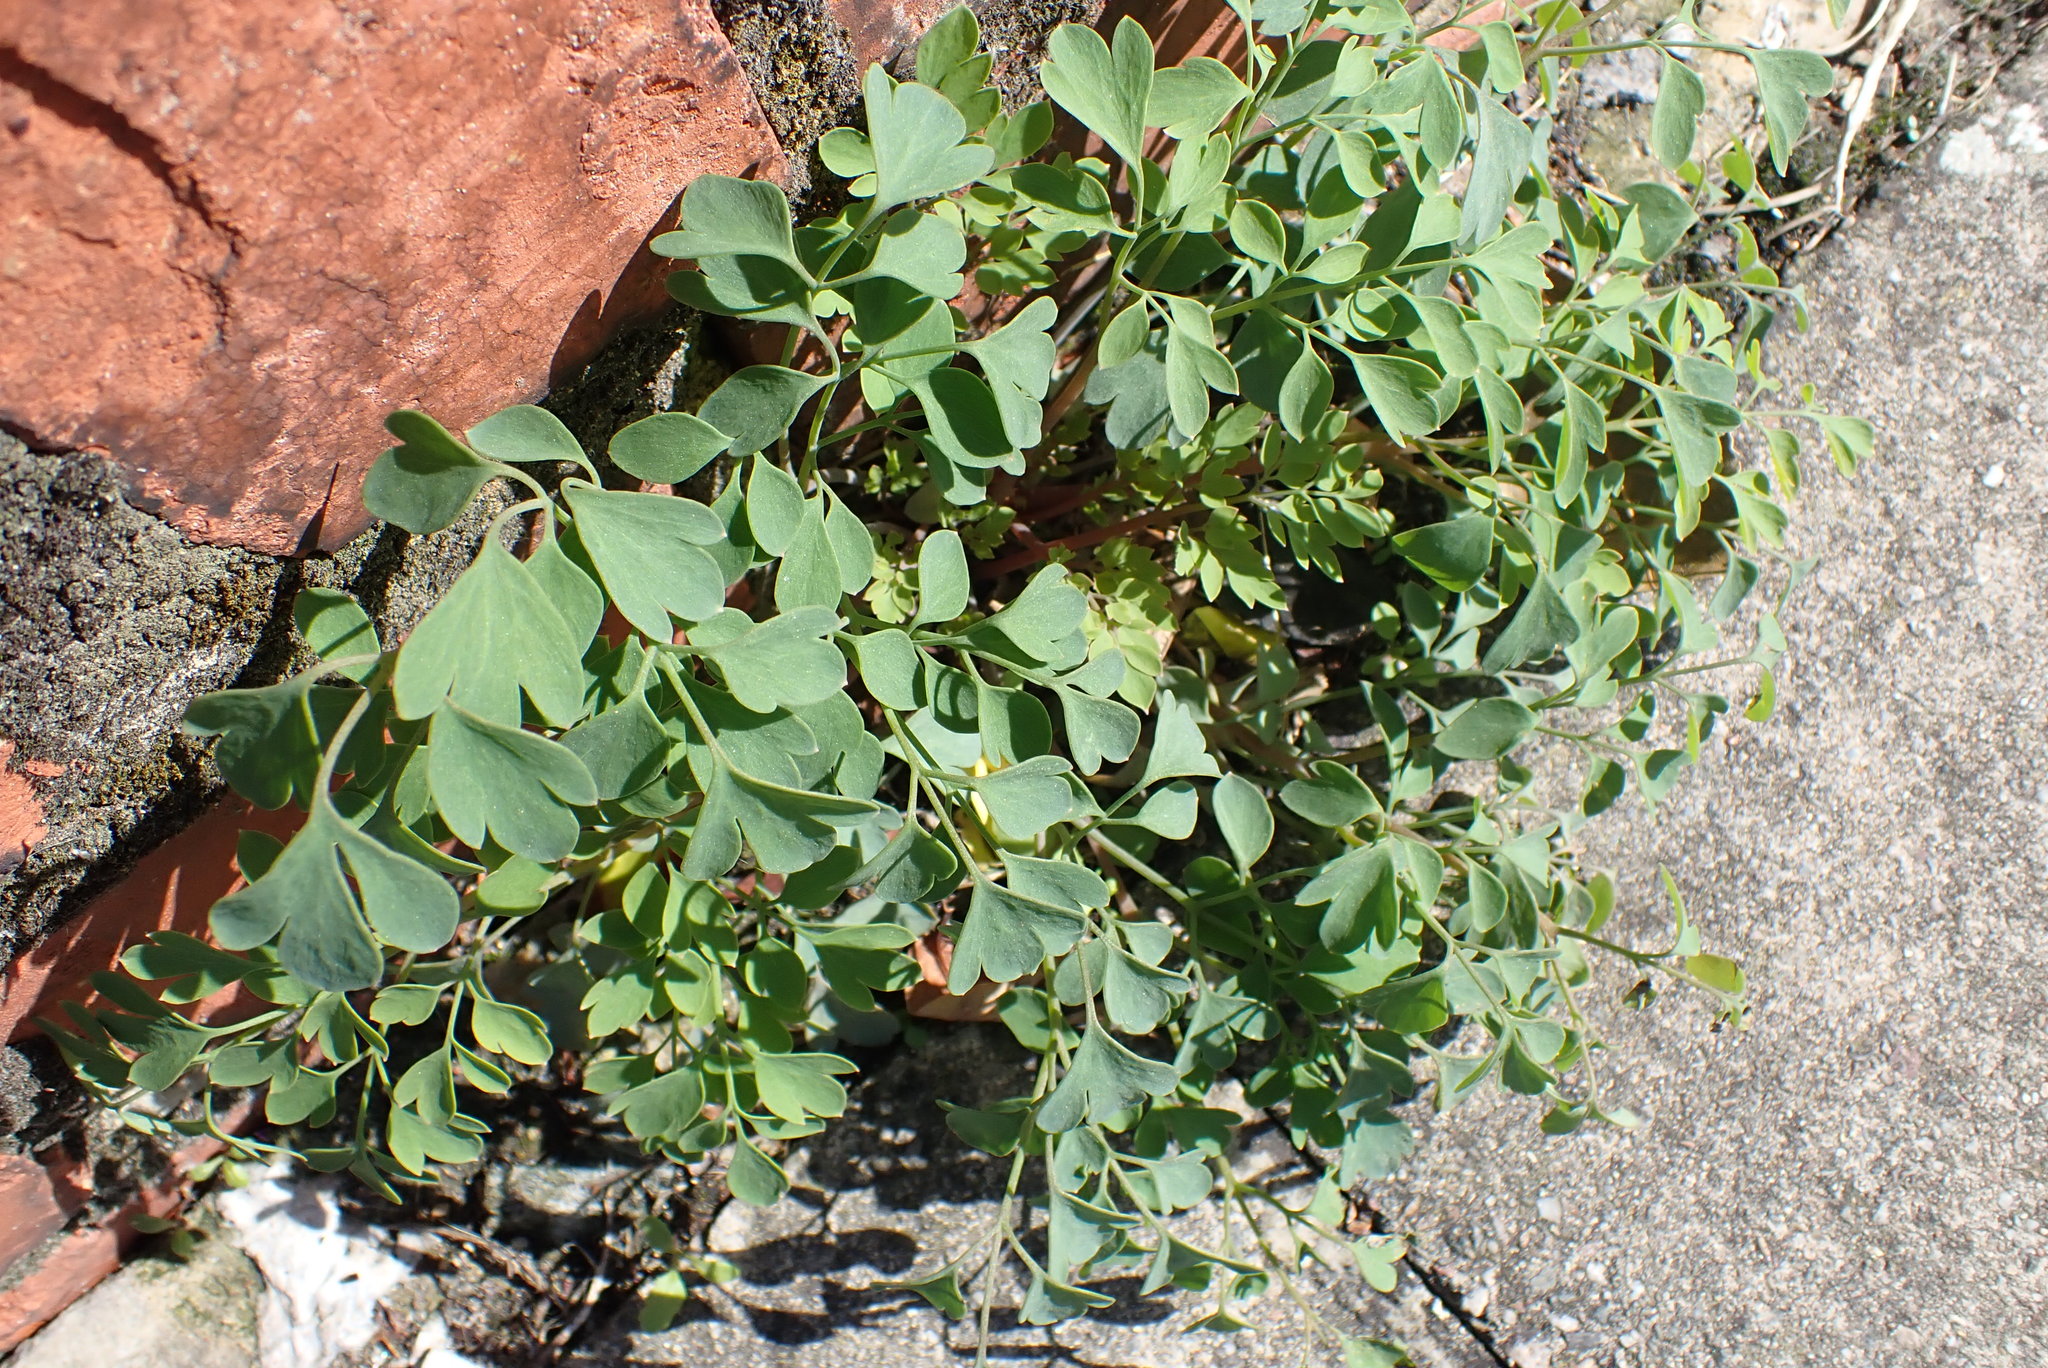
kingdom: Plantae
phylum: Tracheophyta
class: Magnoliopsida
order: Ranunculales
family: Papaveraceae
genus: Pseudofumaria
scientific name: Pseudofumaria lutea
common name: Yellow corydalis
